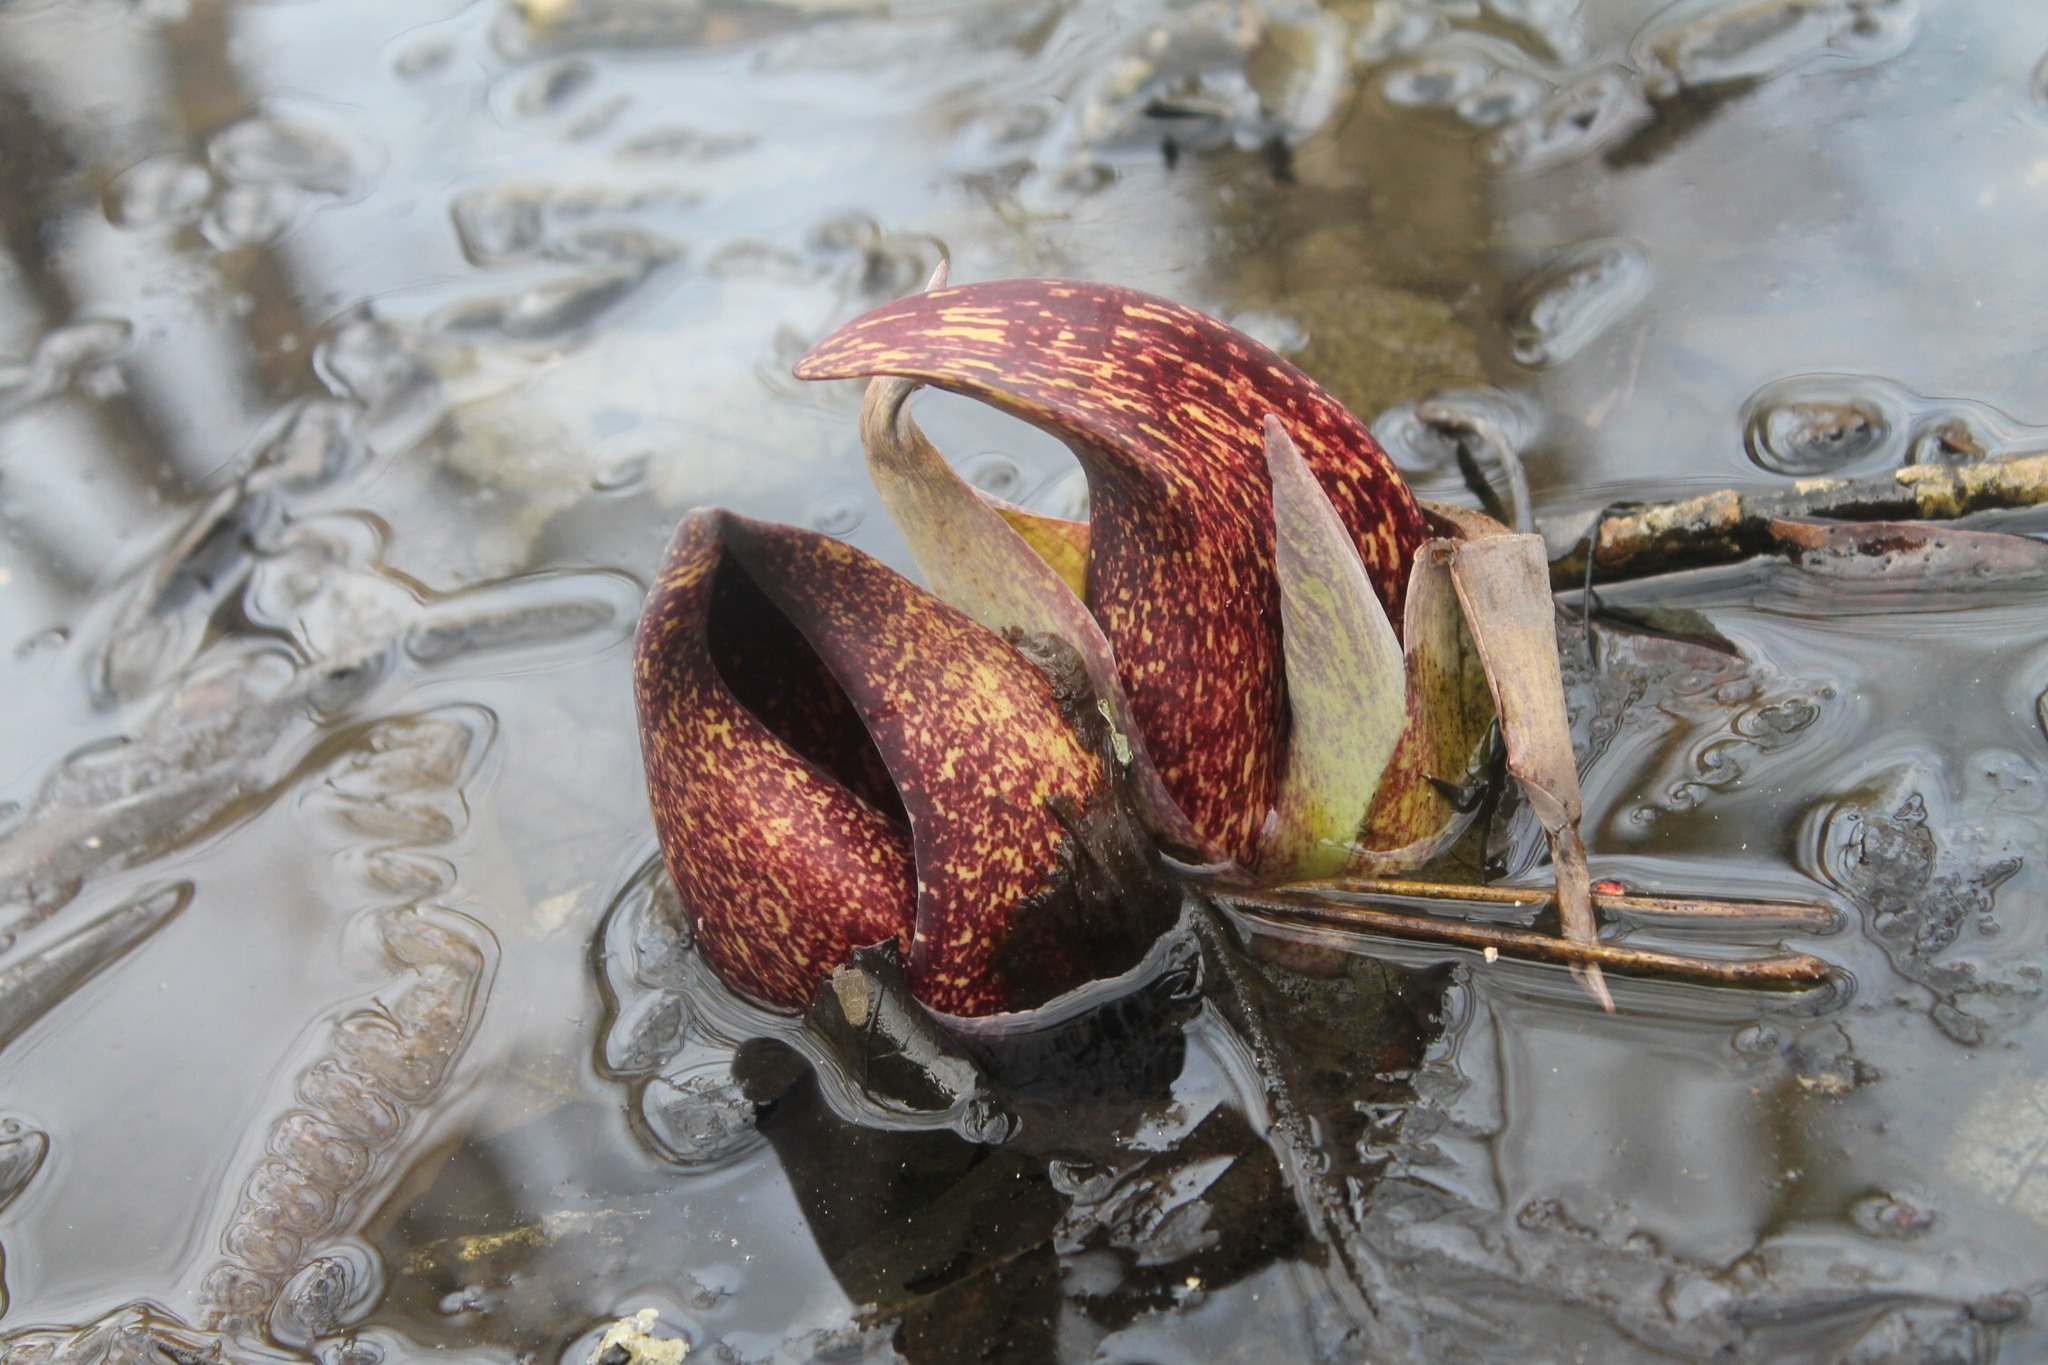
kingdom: Plantae
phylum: Tracheophyta
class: Liliopsida
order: Alismatales
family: Araceae
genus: Symplocarpus
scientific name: Symplocarpus foetidus
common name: Eastern skunk cabbage
